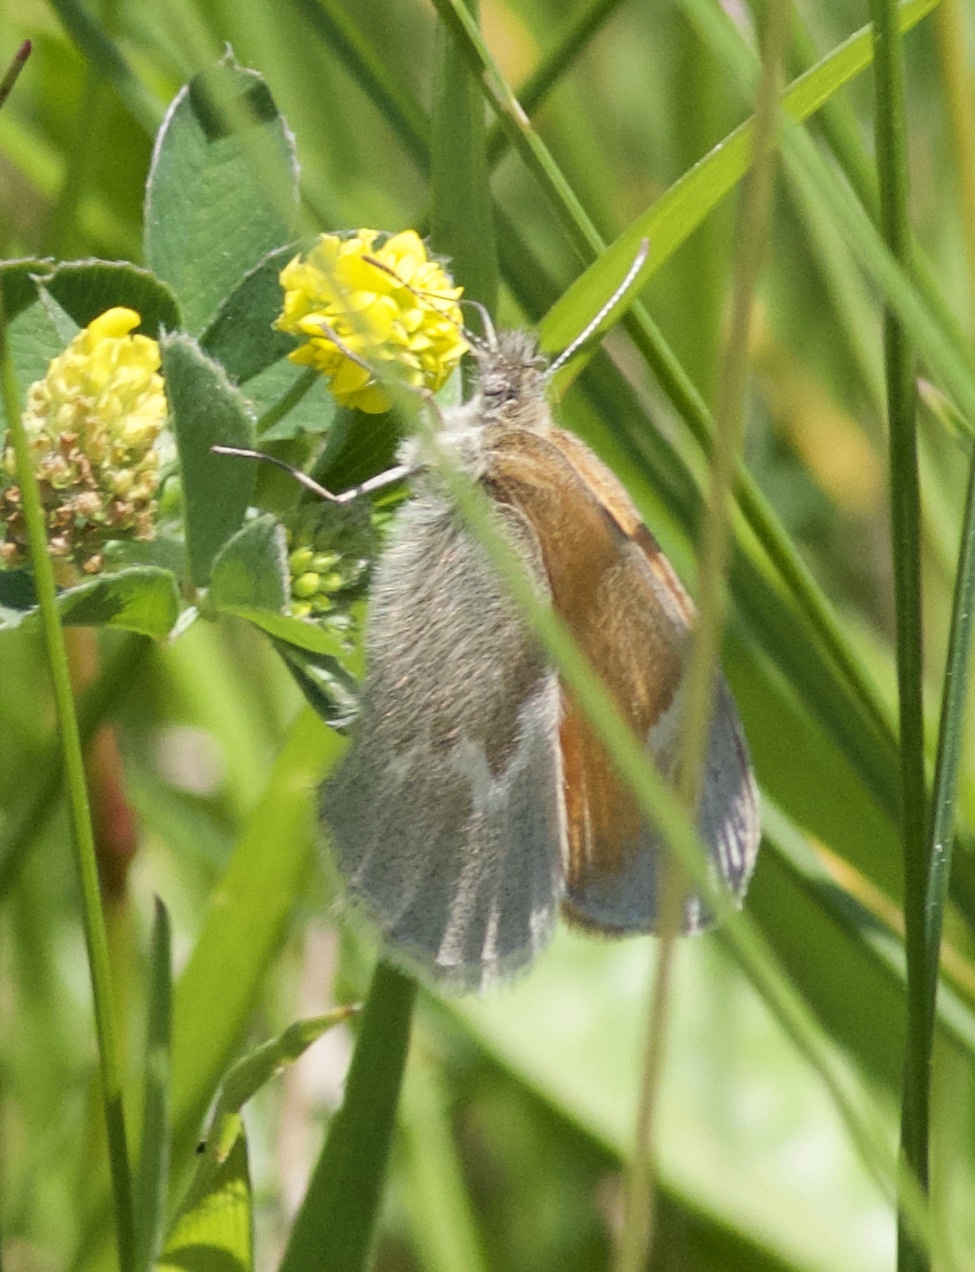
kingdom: Animalia
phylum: Arthropoda
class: Insecta
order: Lepidoptera
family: Nymphalidae
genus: Coenonympha
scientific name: Coenonympha california
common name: Common ringlet
